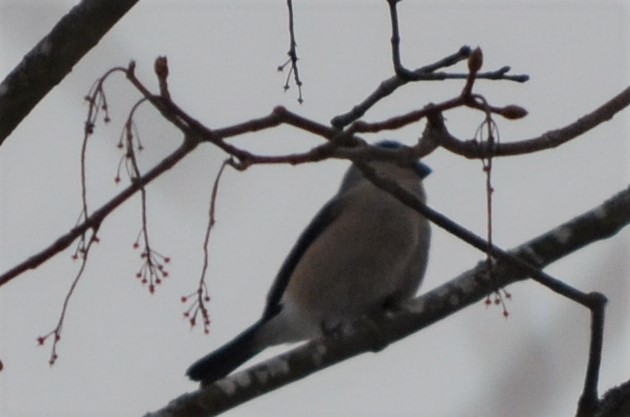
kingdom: Animalia
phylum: Chordata
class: Aves
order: Passeriformes
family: Fringillidae
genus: Pyrrhula
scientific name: Pyrrhula pyrrhula
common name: Eurasian bullfinch
